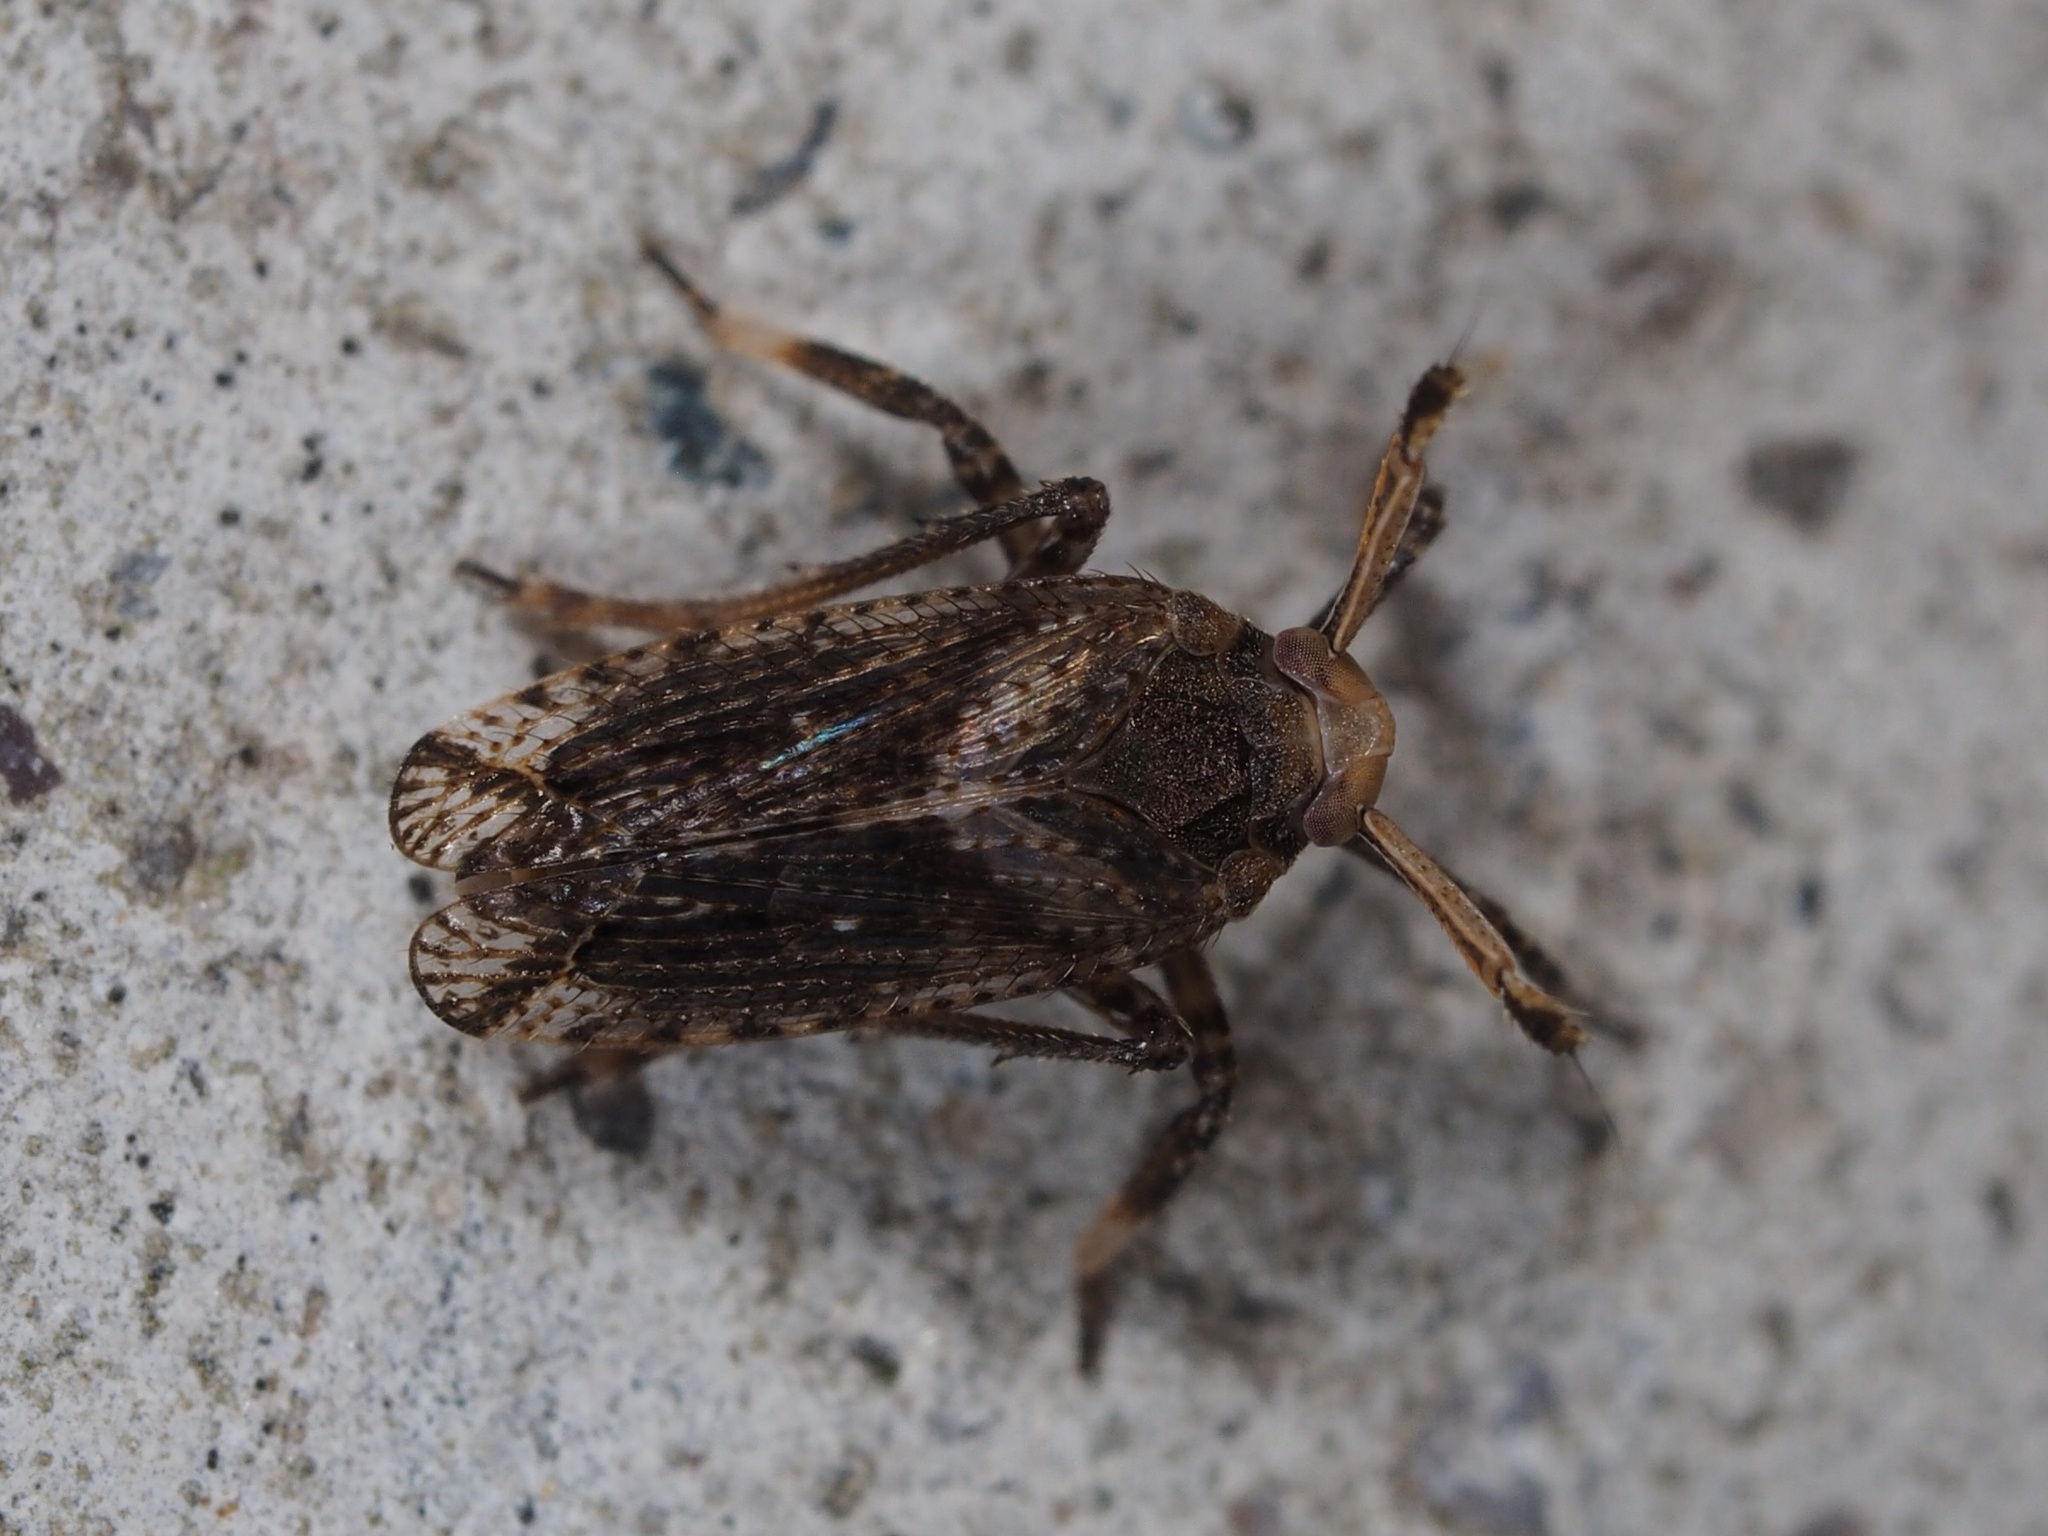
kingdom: Animalia
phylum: Arthropoda
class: Insecta
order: Hemiptera
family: Delphacidae
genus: Asiraca
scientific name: Asiraca clavicornis
